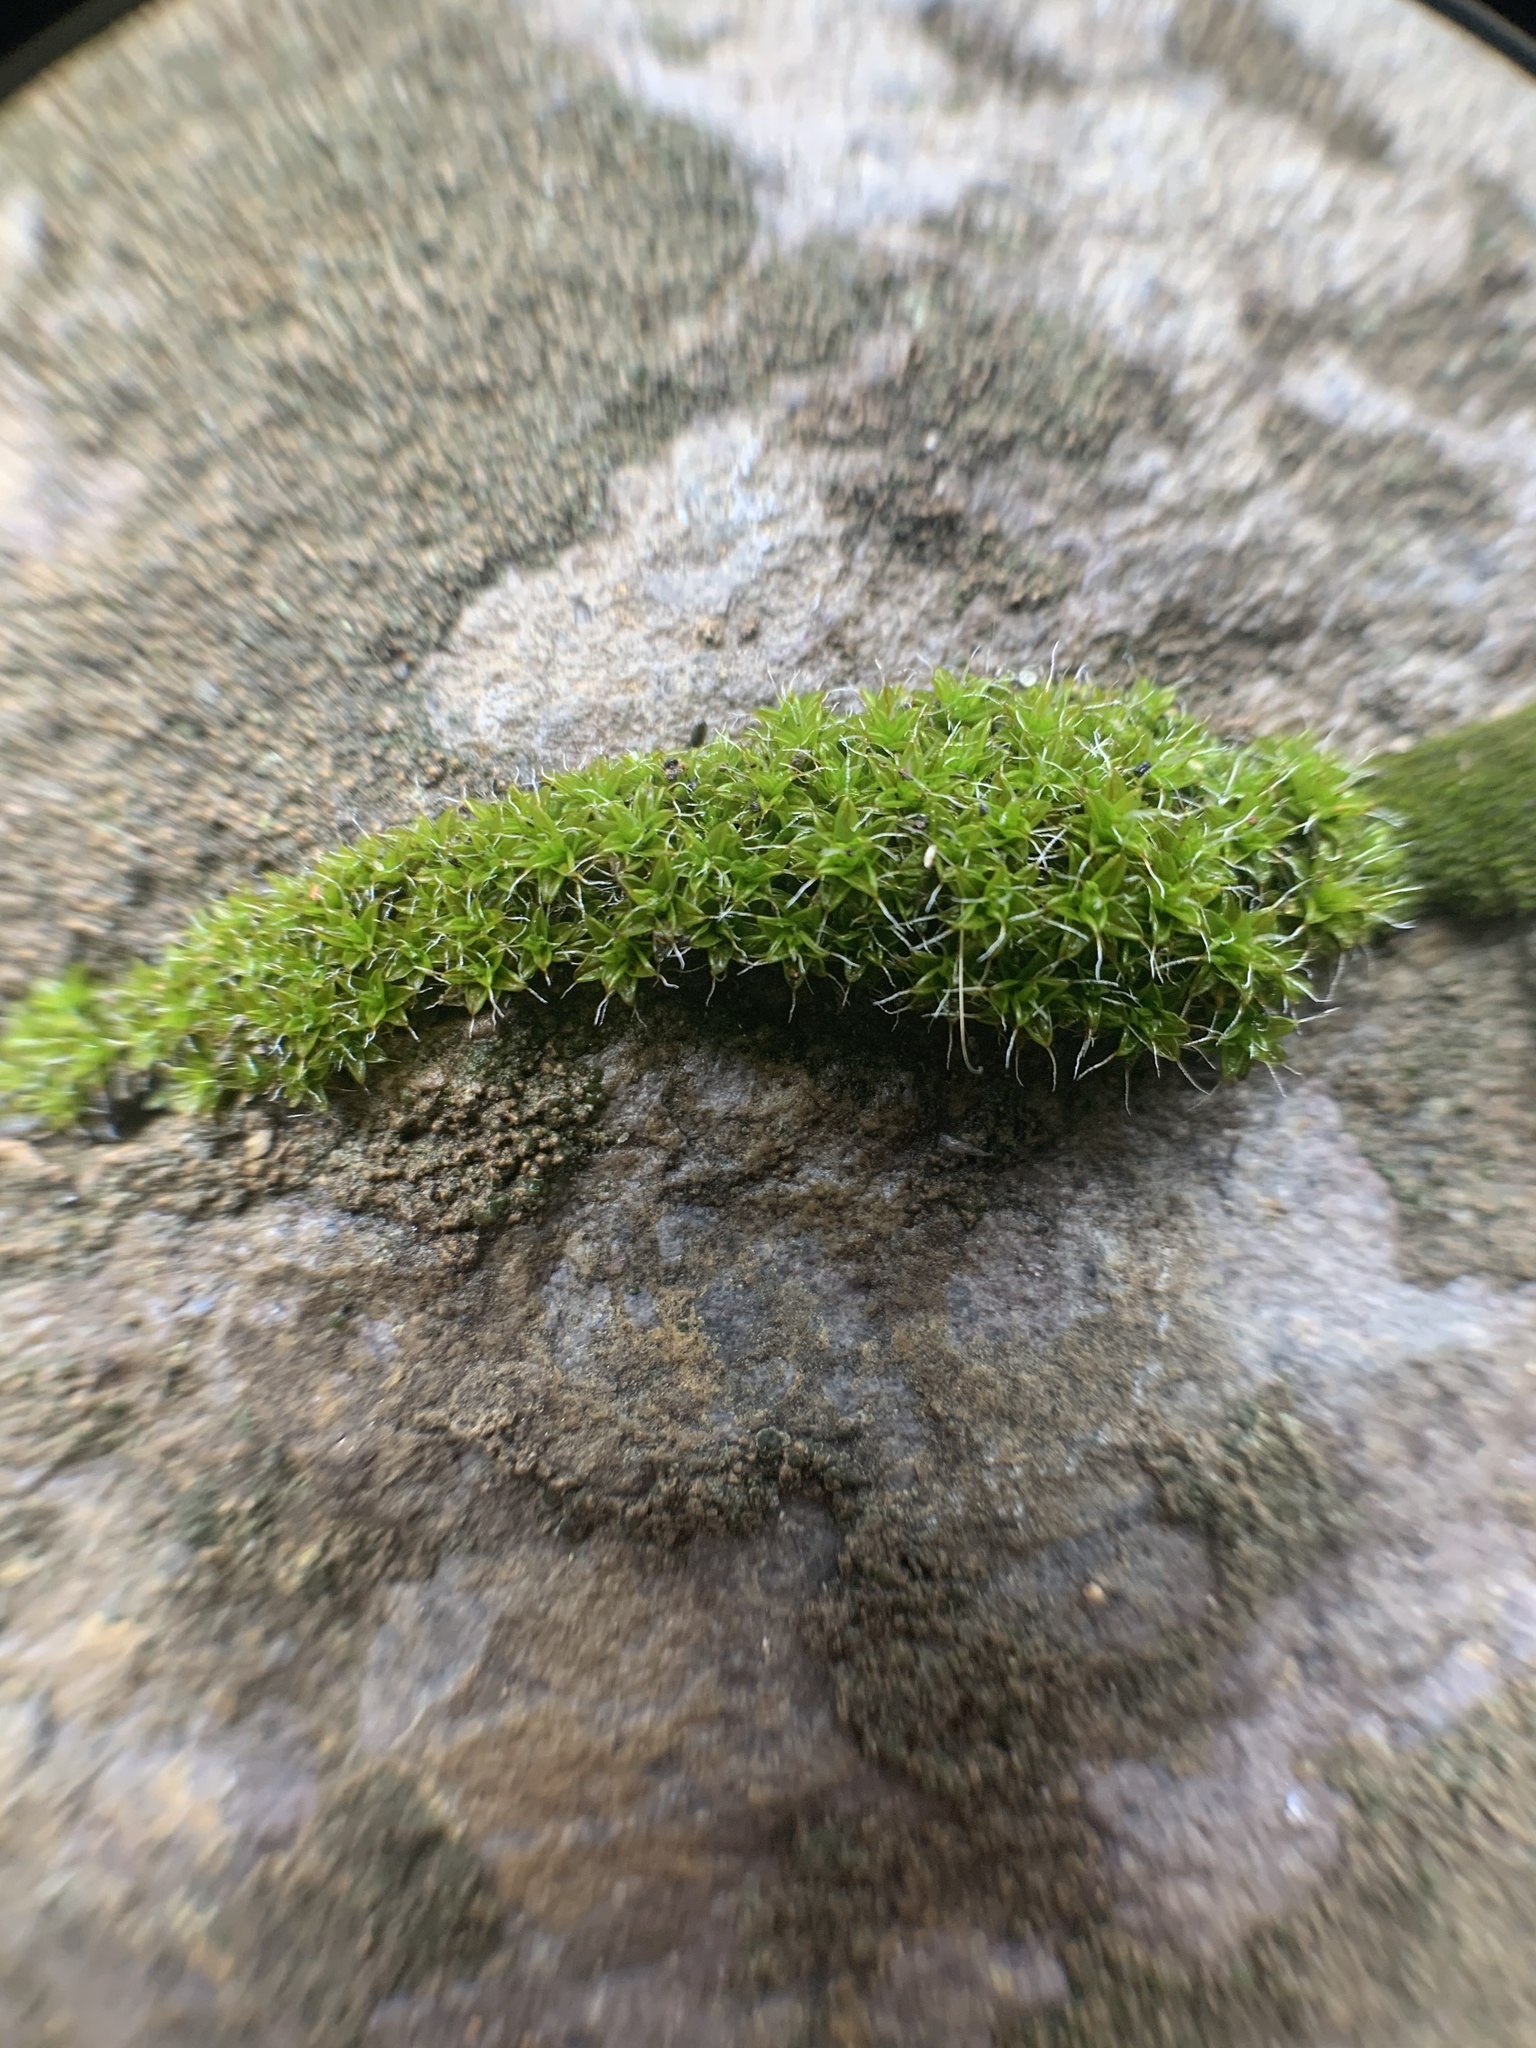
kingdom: Plantae
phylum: Bryophyta
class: Bryopsida
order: Pottiales
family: Pottiaceae
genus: Syntrichia
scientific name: Syntrichia ruralis
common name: Sidewalk screw moss
